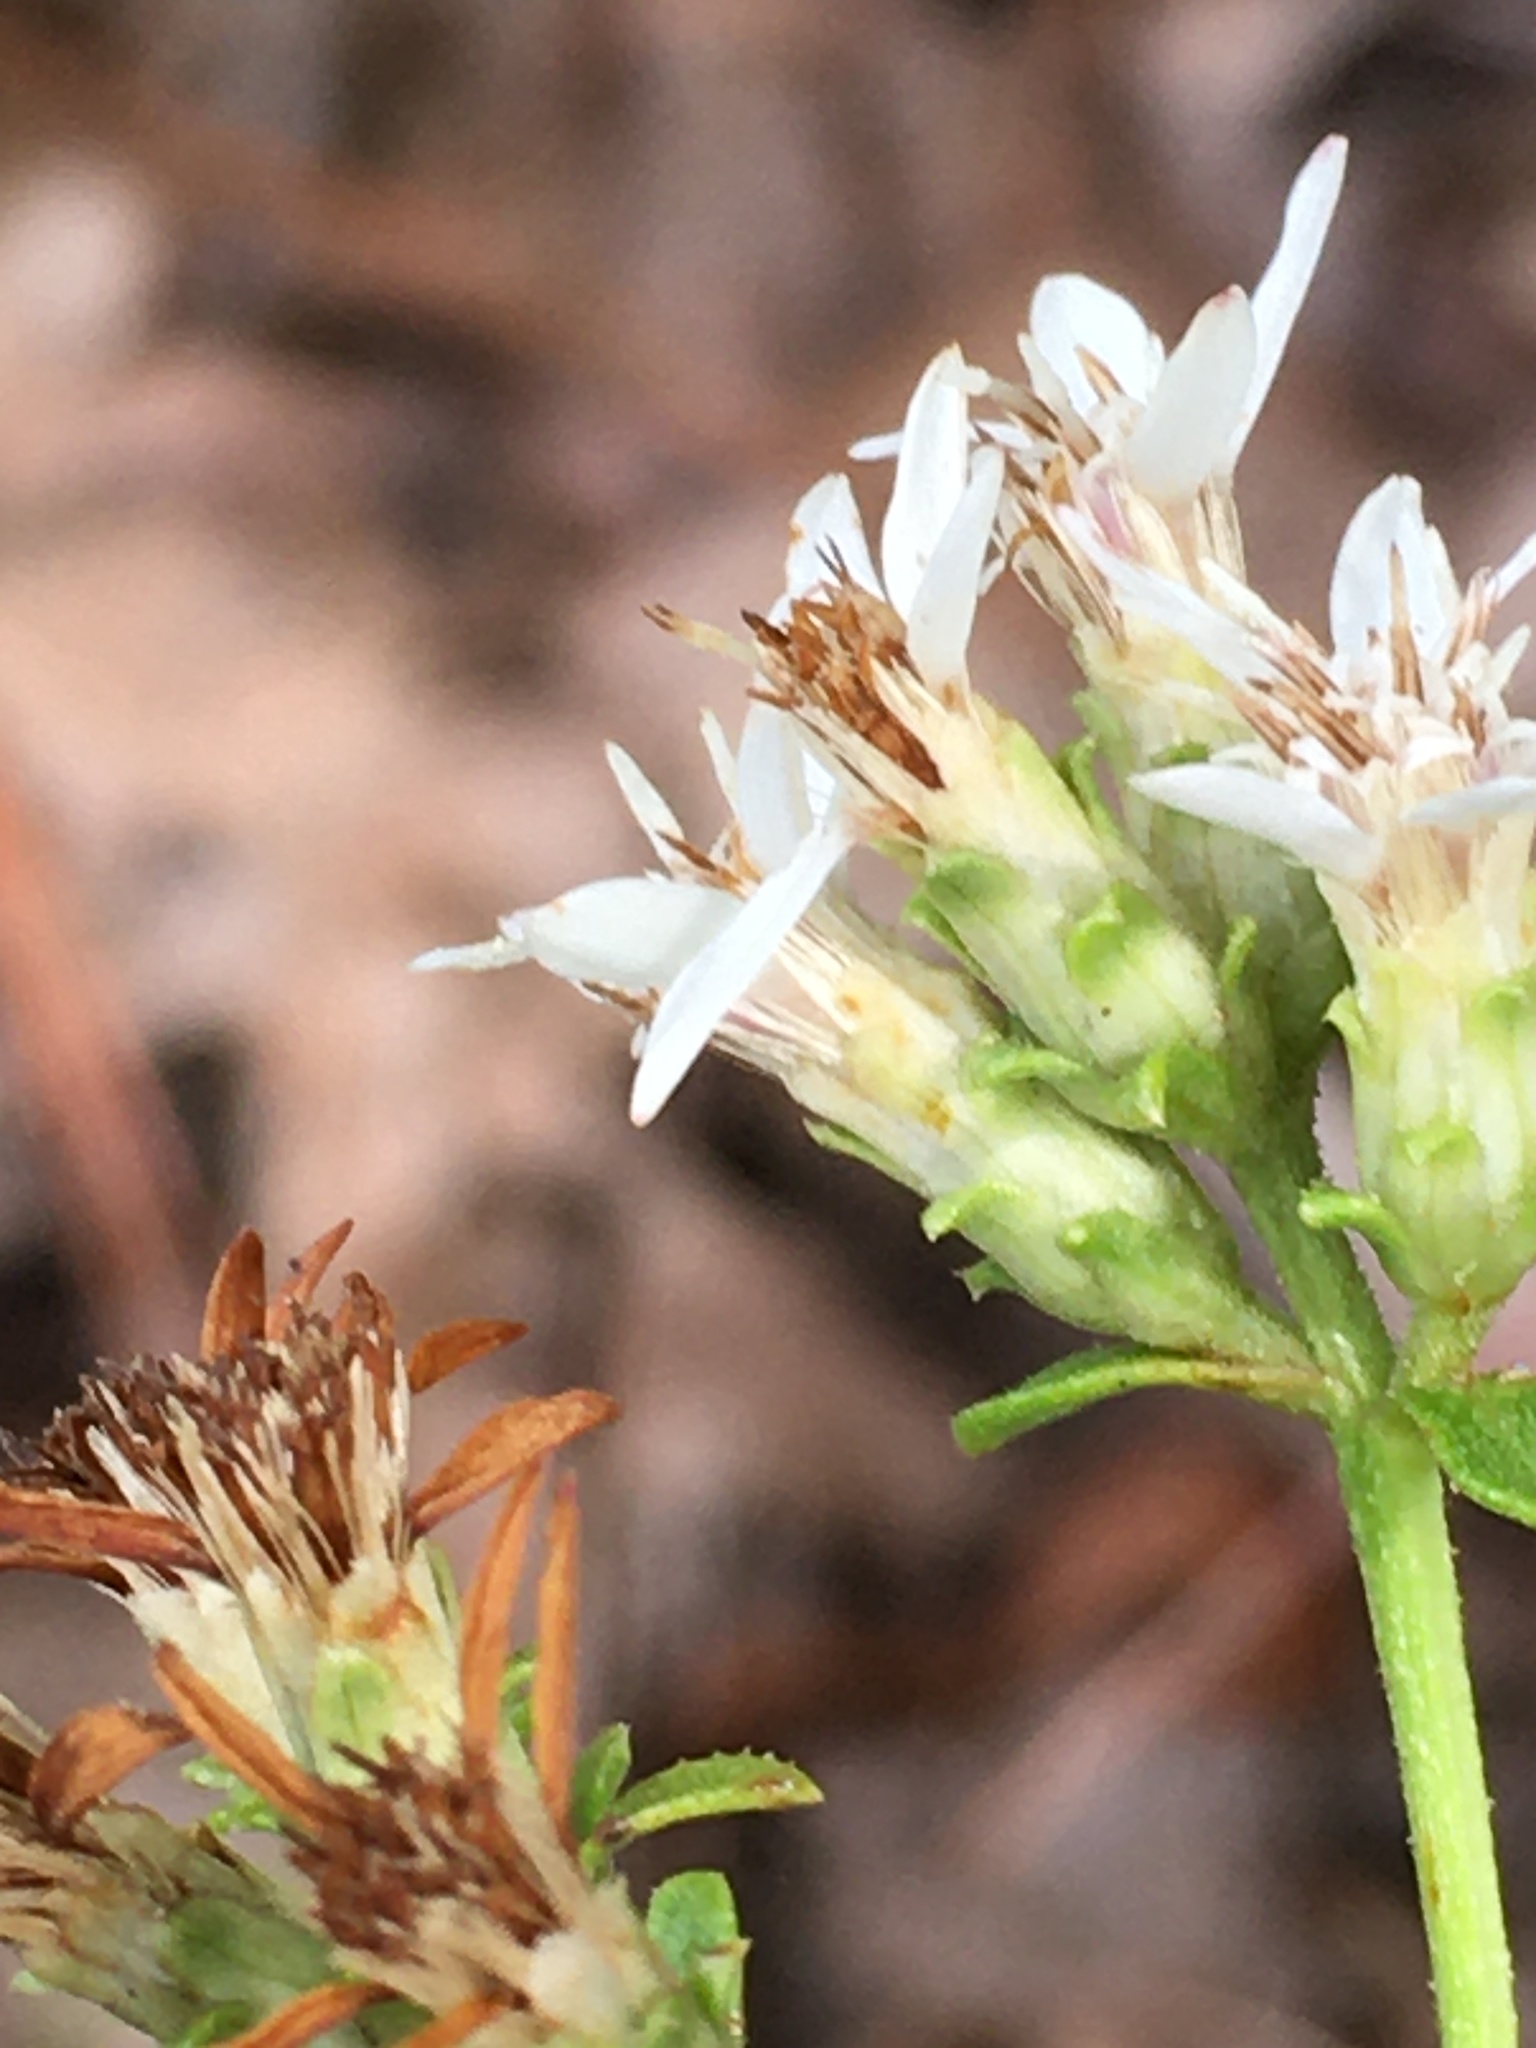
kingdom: Plantae
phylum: Tracheophyta
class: Magnoliopsida
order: Asterales
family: Asteraceae
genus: Sericocarpus
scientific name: Sericocarpus asteroides
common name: Toothed white-top aster
